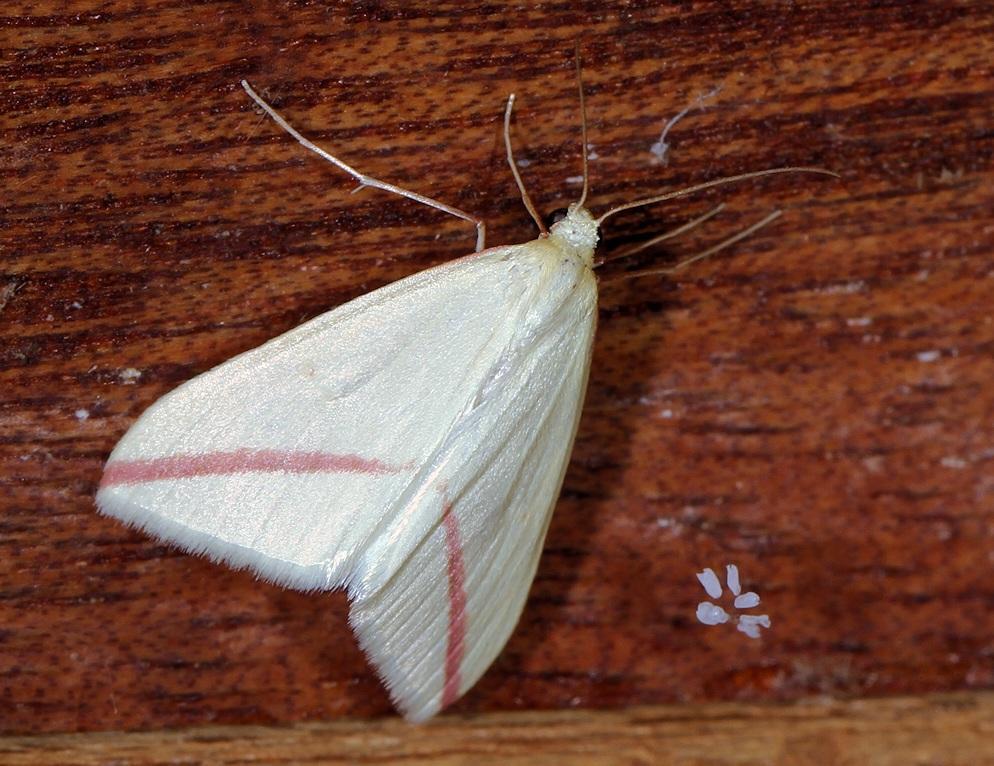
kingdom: Animalia
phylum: Arthropoda
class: Insecta
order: Lepidoptera
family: Geometridae
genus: Rhodometra
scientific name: Rhodometra sacraria
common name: Vestal
